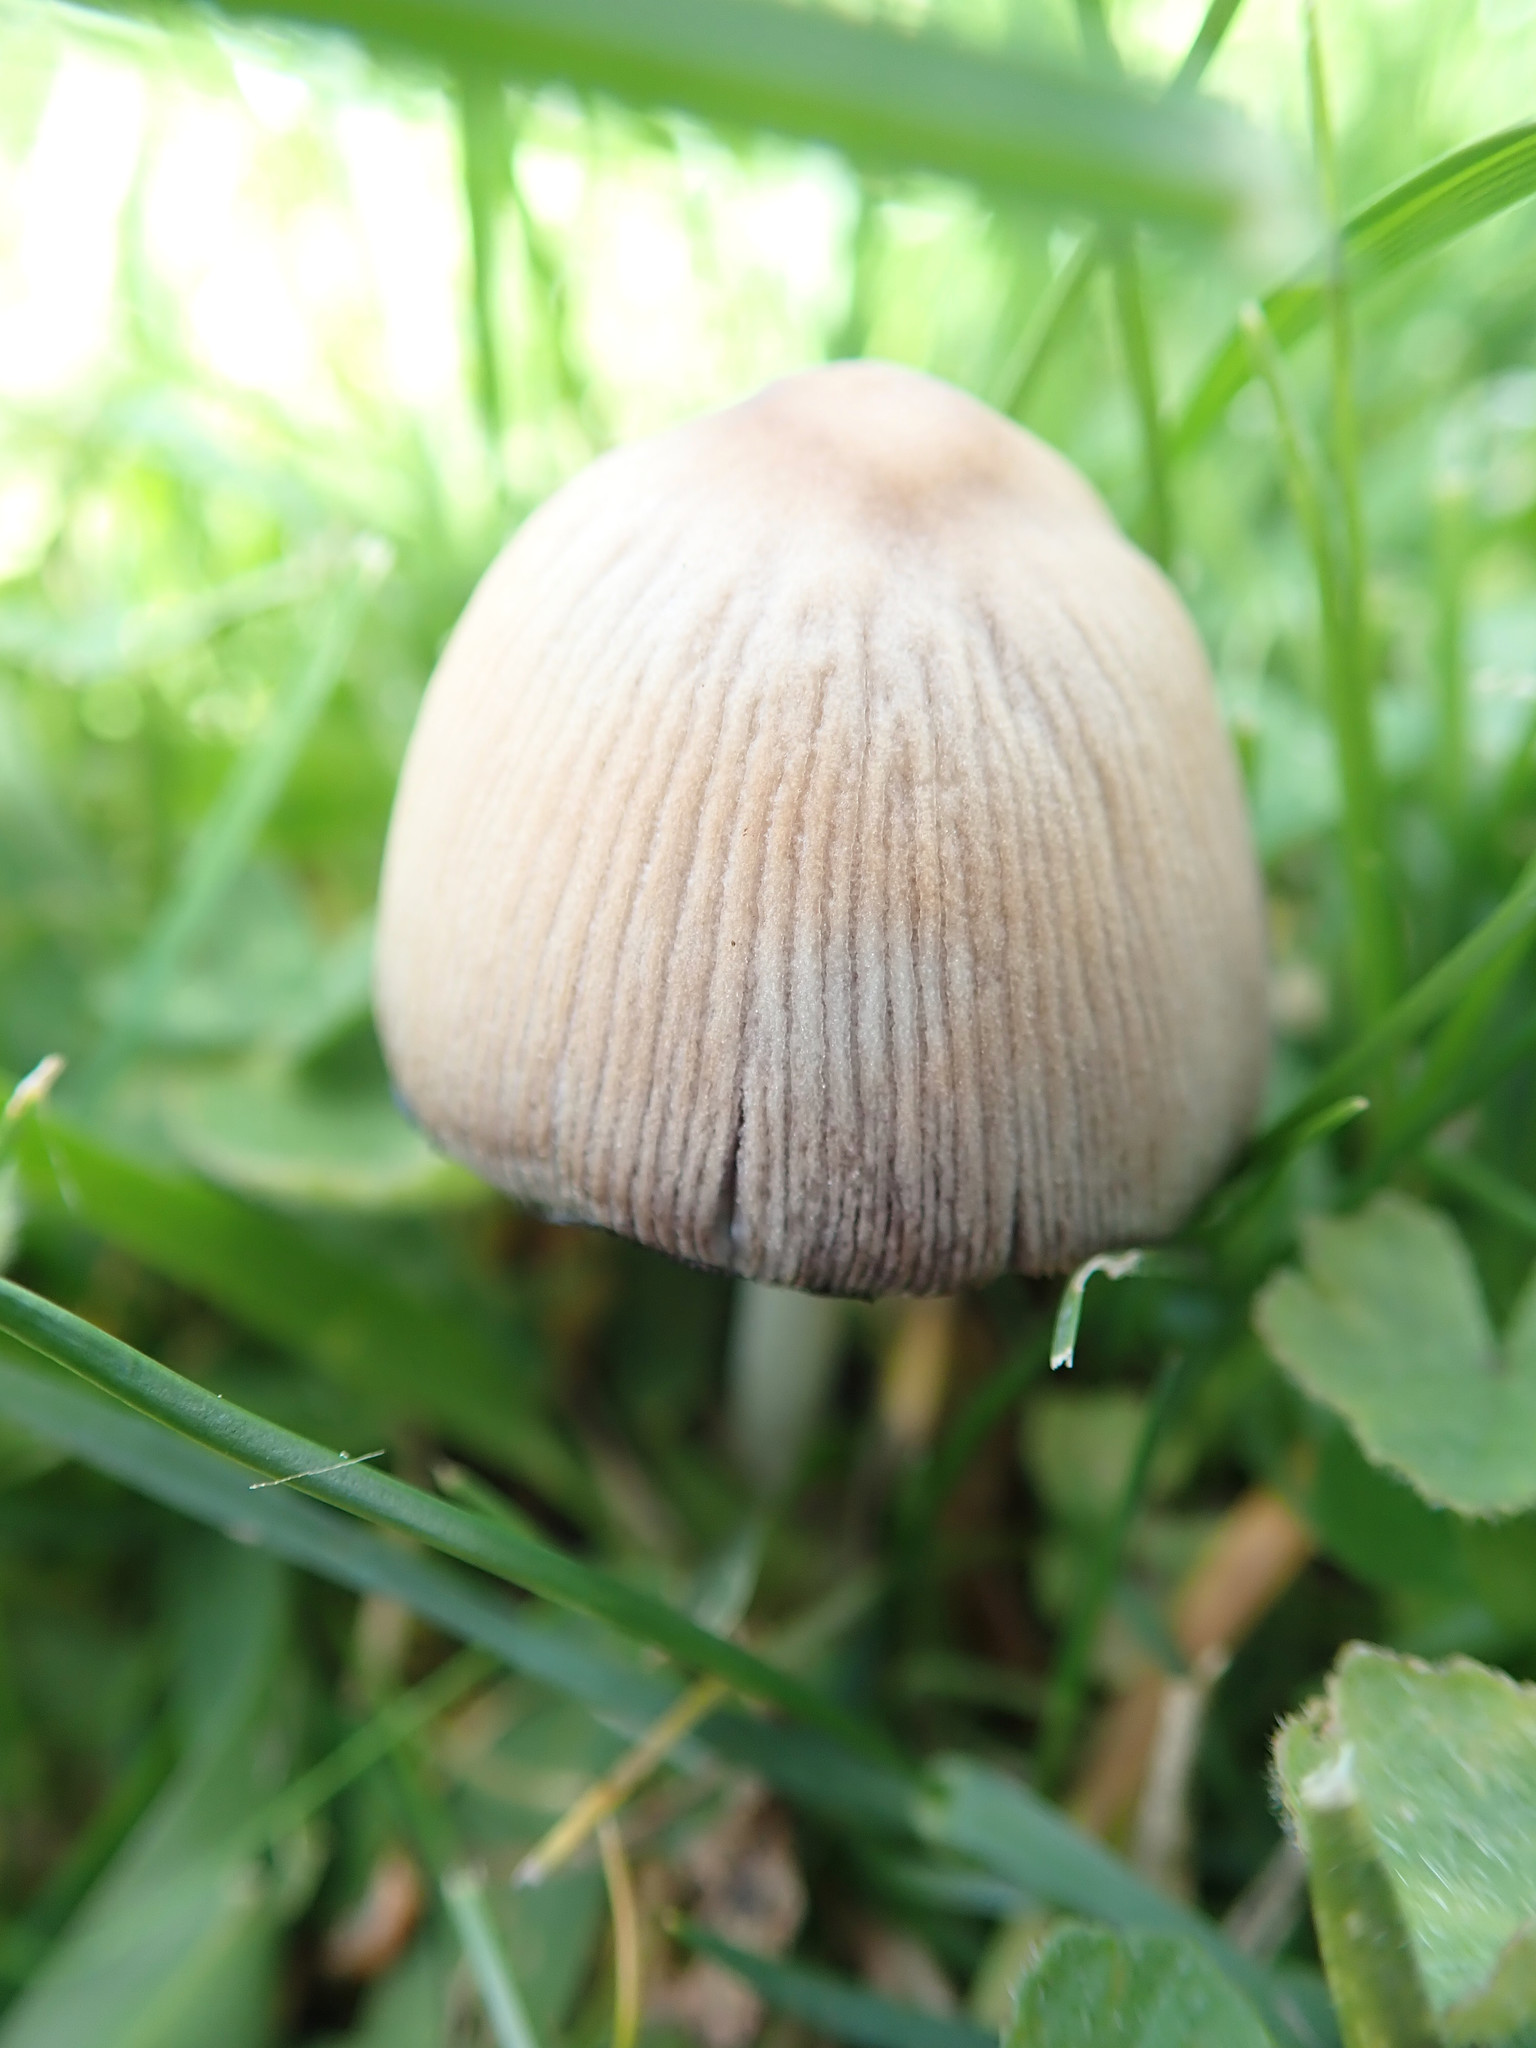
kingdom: Fungi
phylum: Basidiomycota
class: Agaricomycetes
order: Agaricales
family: Psathyrellaceae
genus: Coprinellus
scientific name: Coprinellus micaceus
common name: Glistening ink-cap
